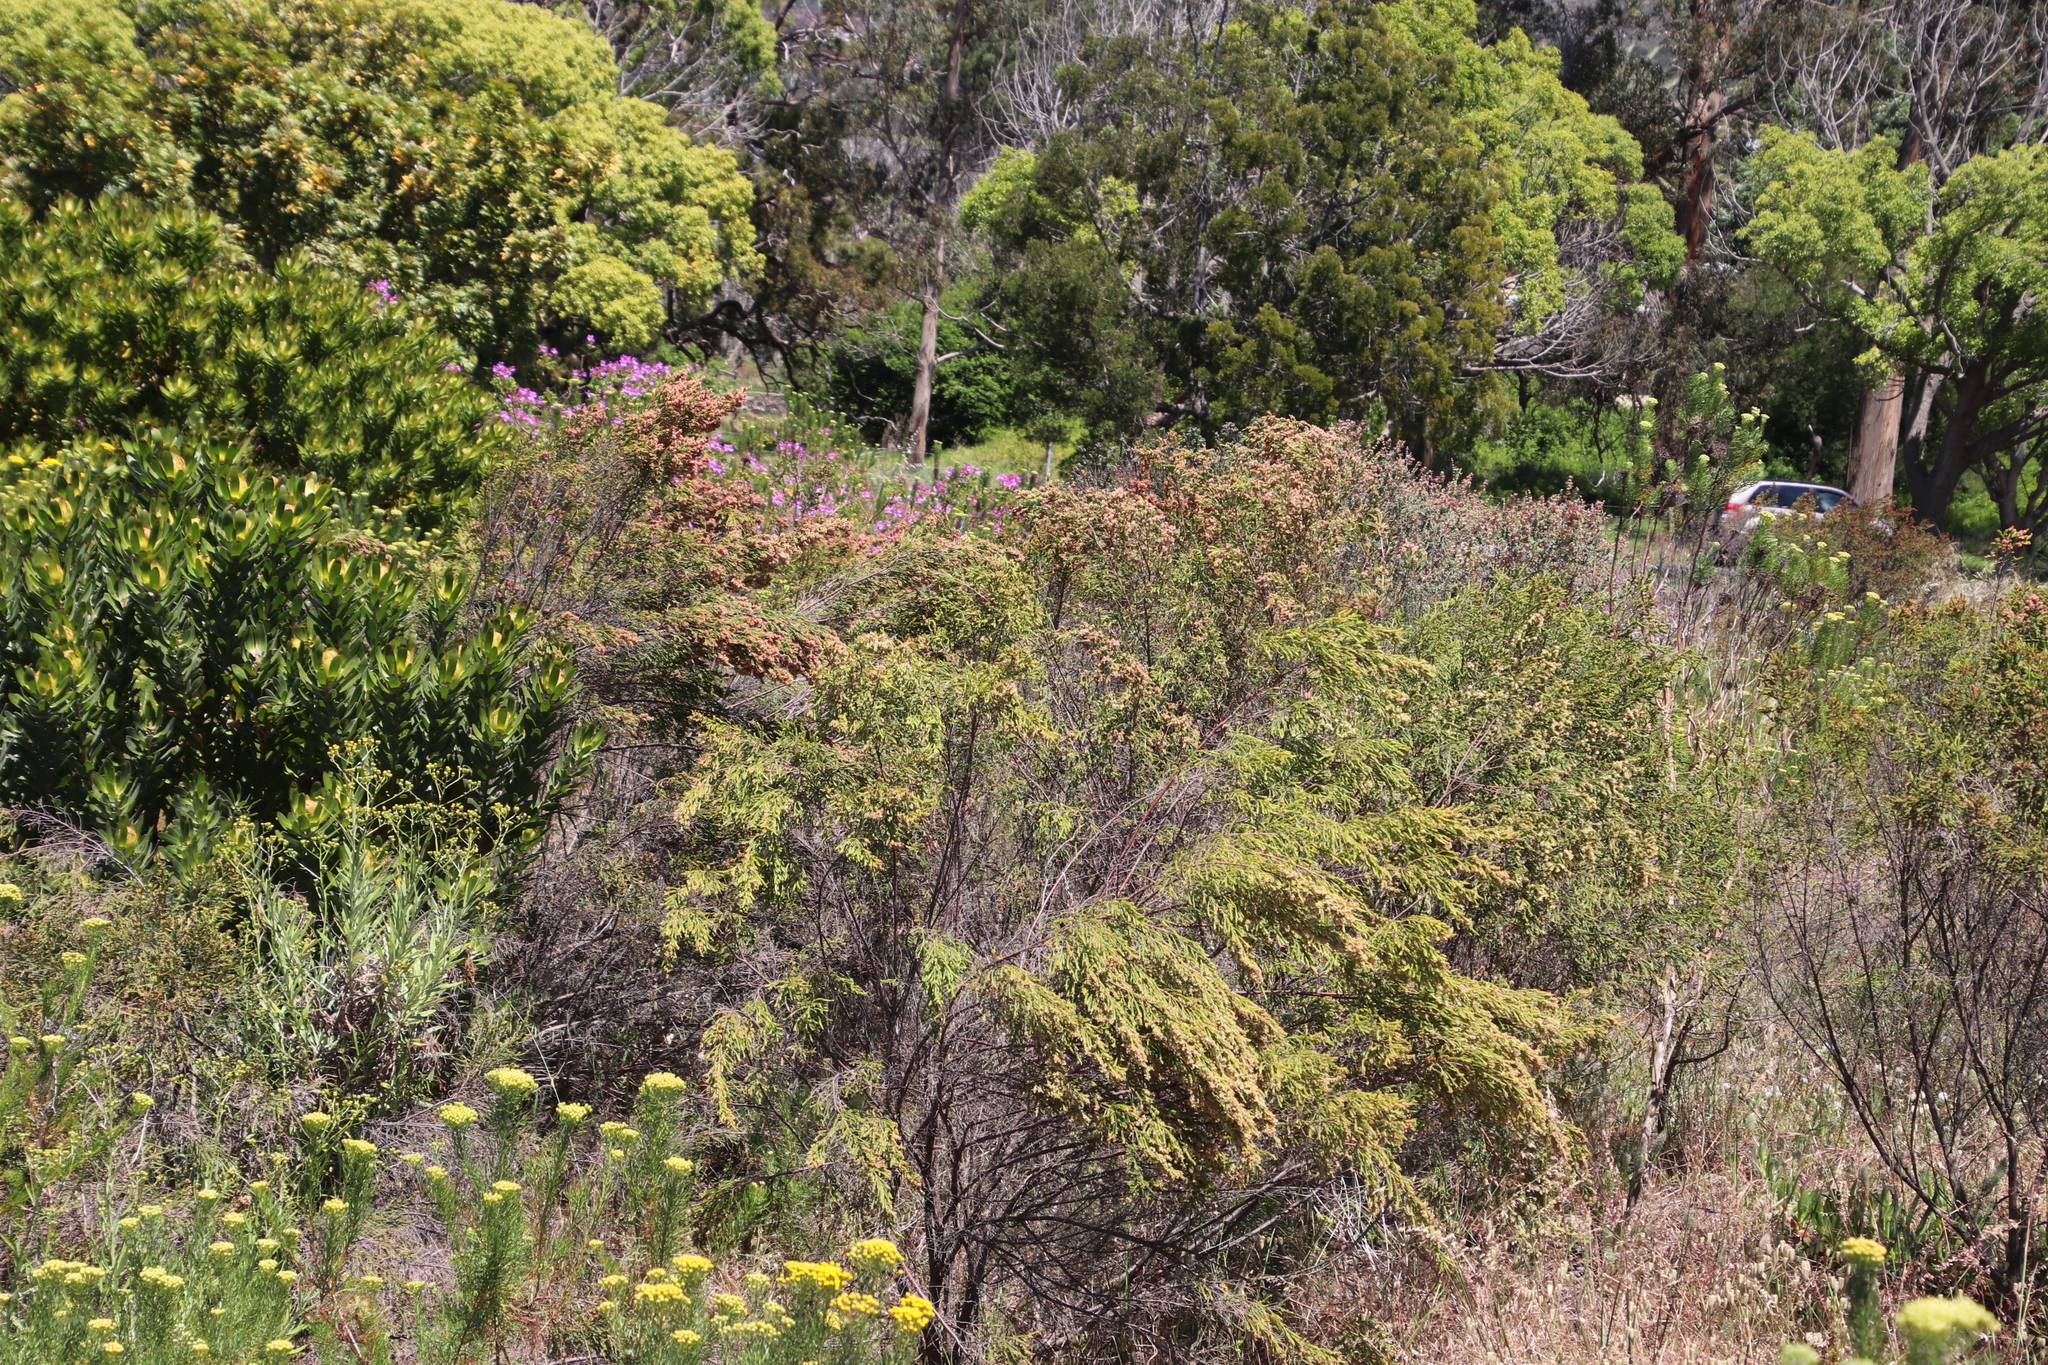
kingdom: Plantae
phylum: Tracheophyta
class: Magnoliopsida
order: Malvales
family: Thymelaeaceae
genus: Passerina
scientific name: Passerina corymbosa
